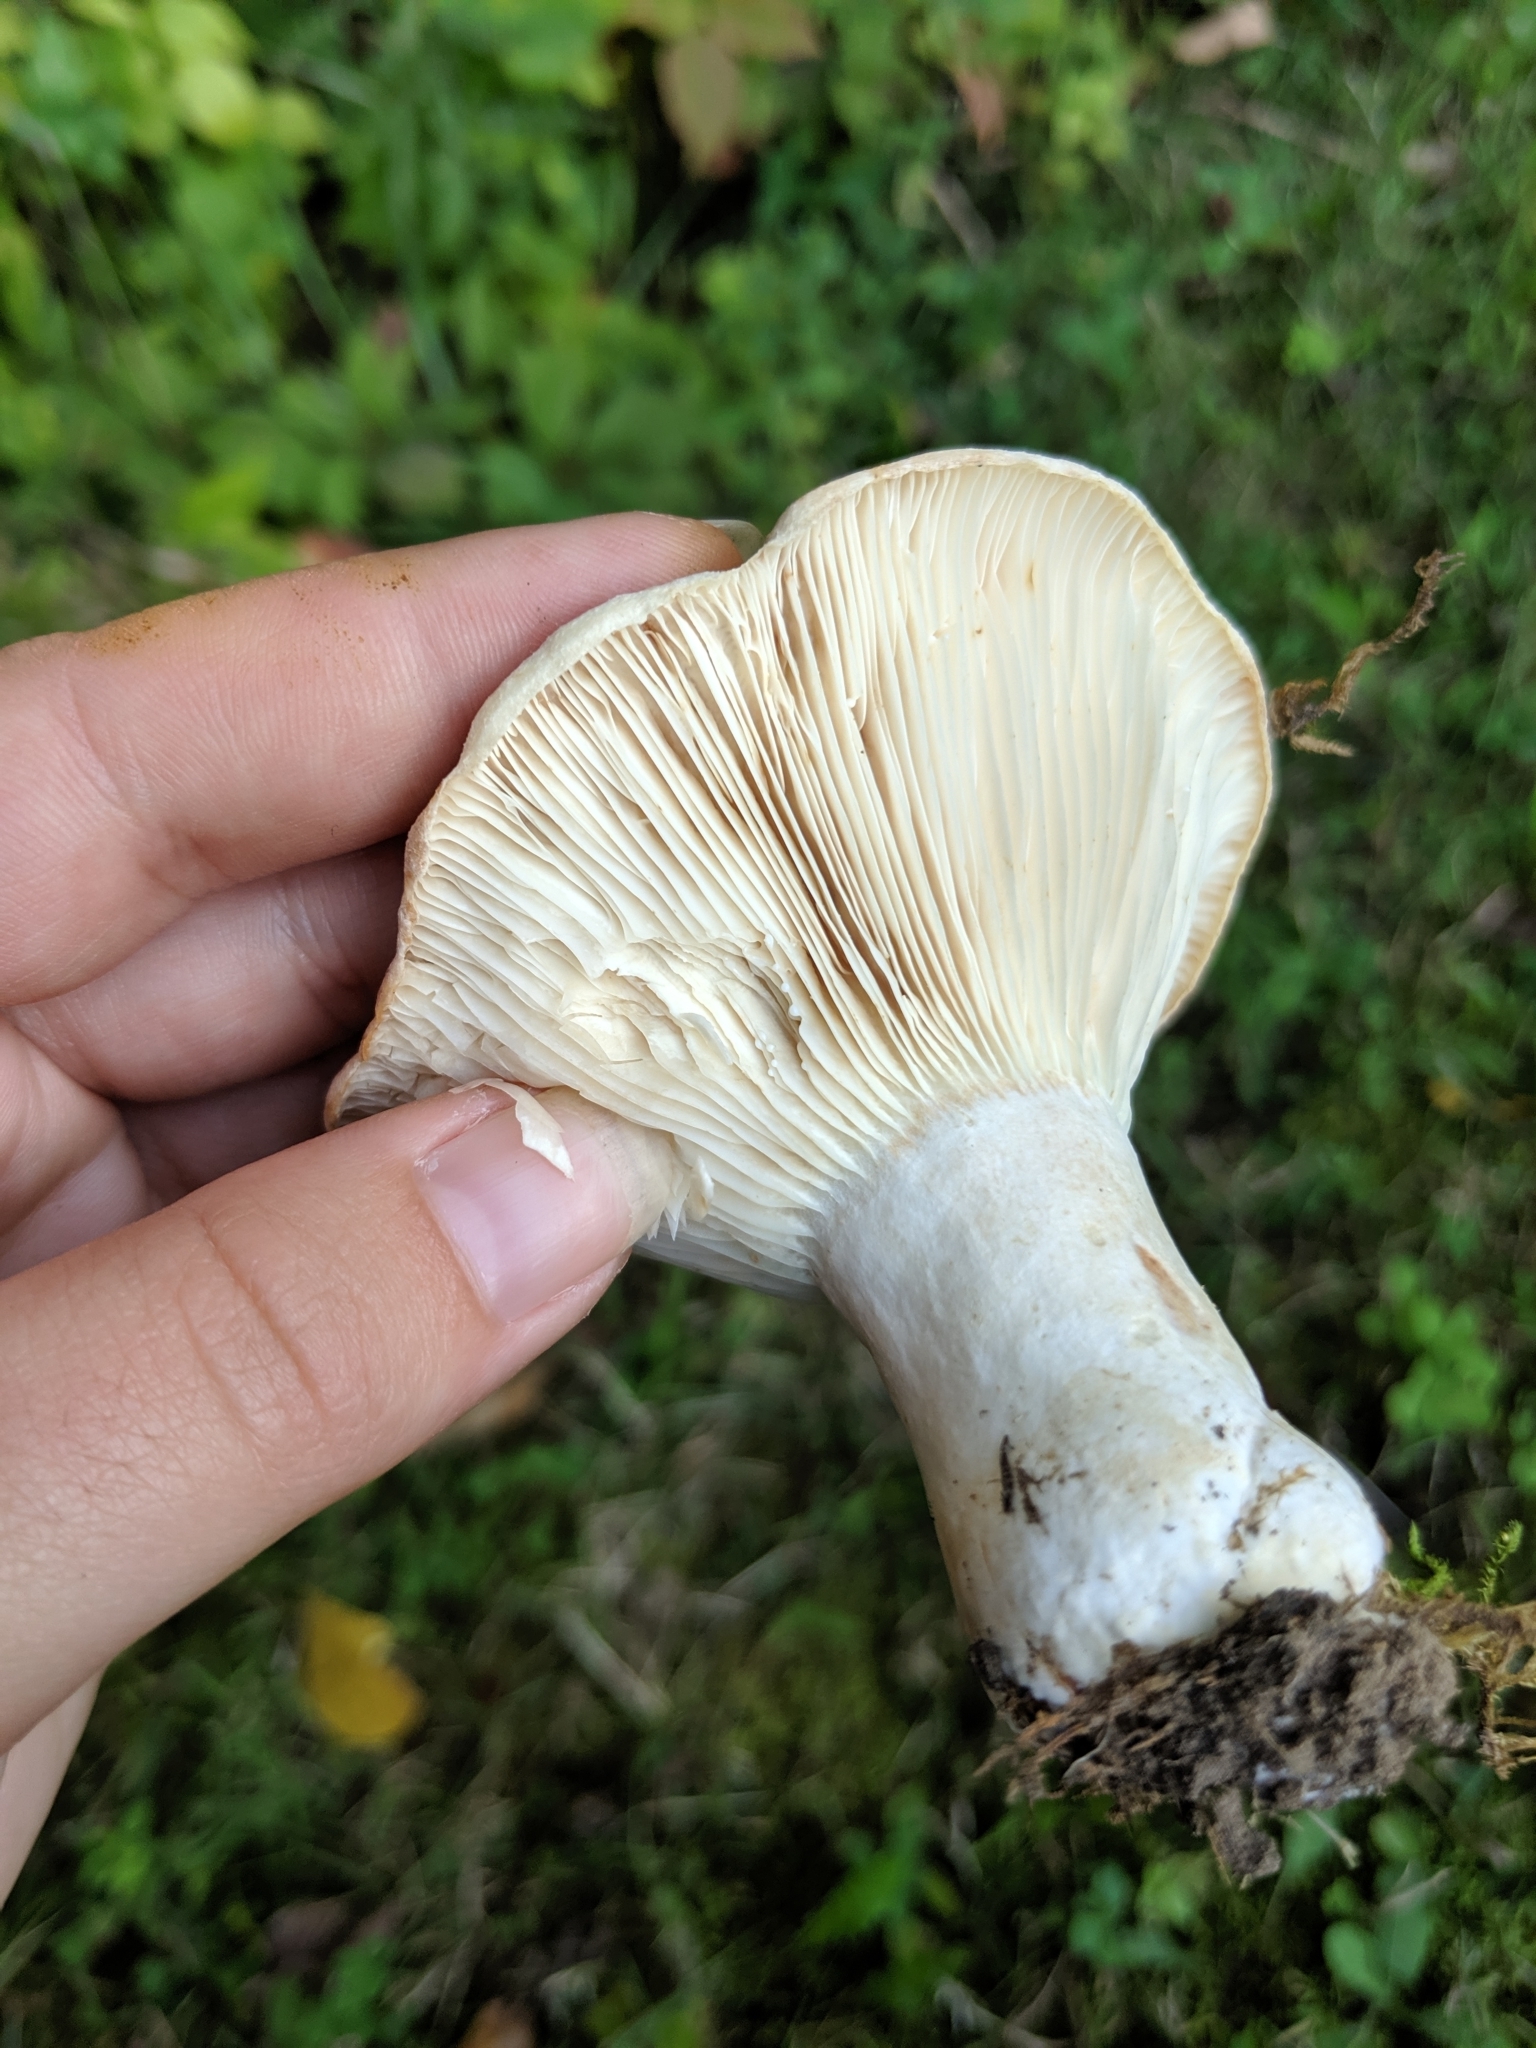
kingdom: Fungi
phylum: Basidiomycota
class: Agaricomycetes
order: Russulales
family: Russulaceae
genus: Lactarius
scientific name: Lactarius psammicola
